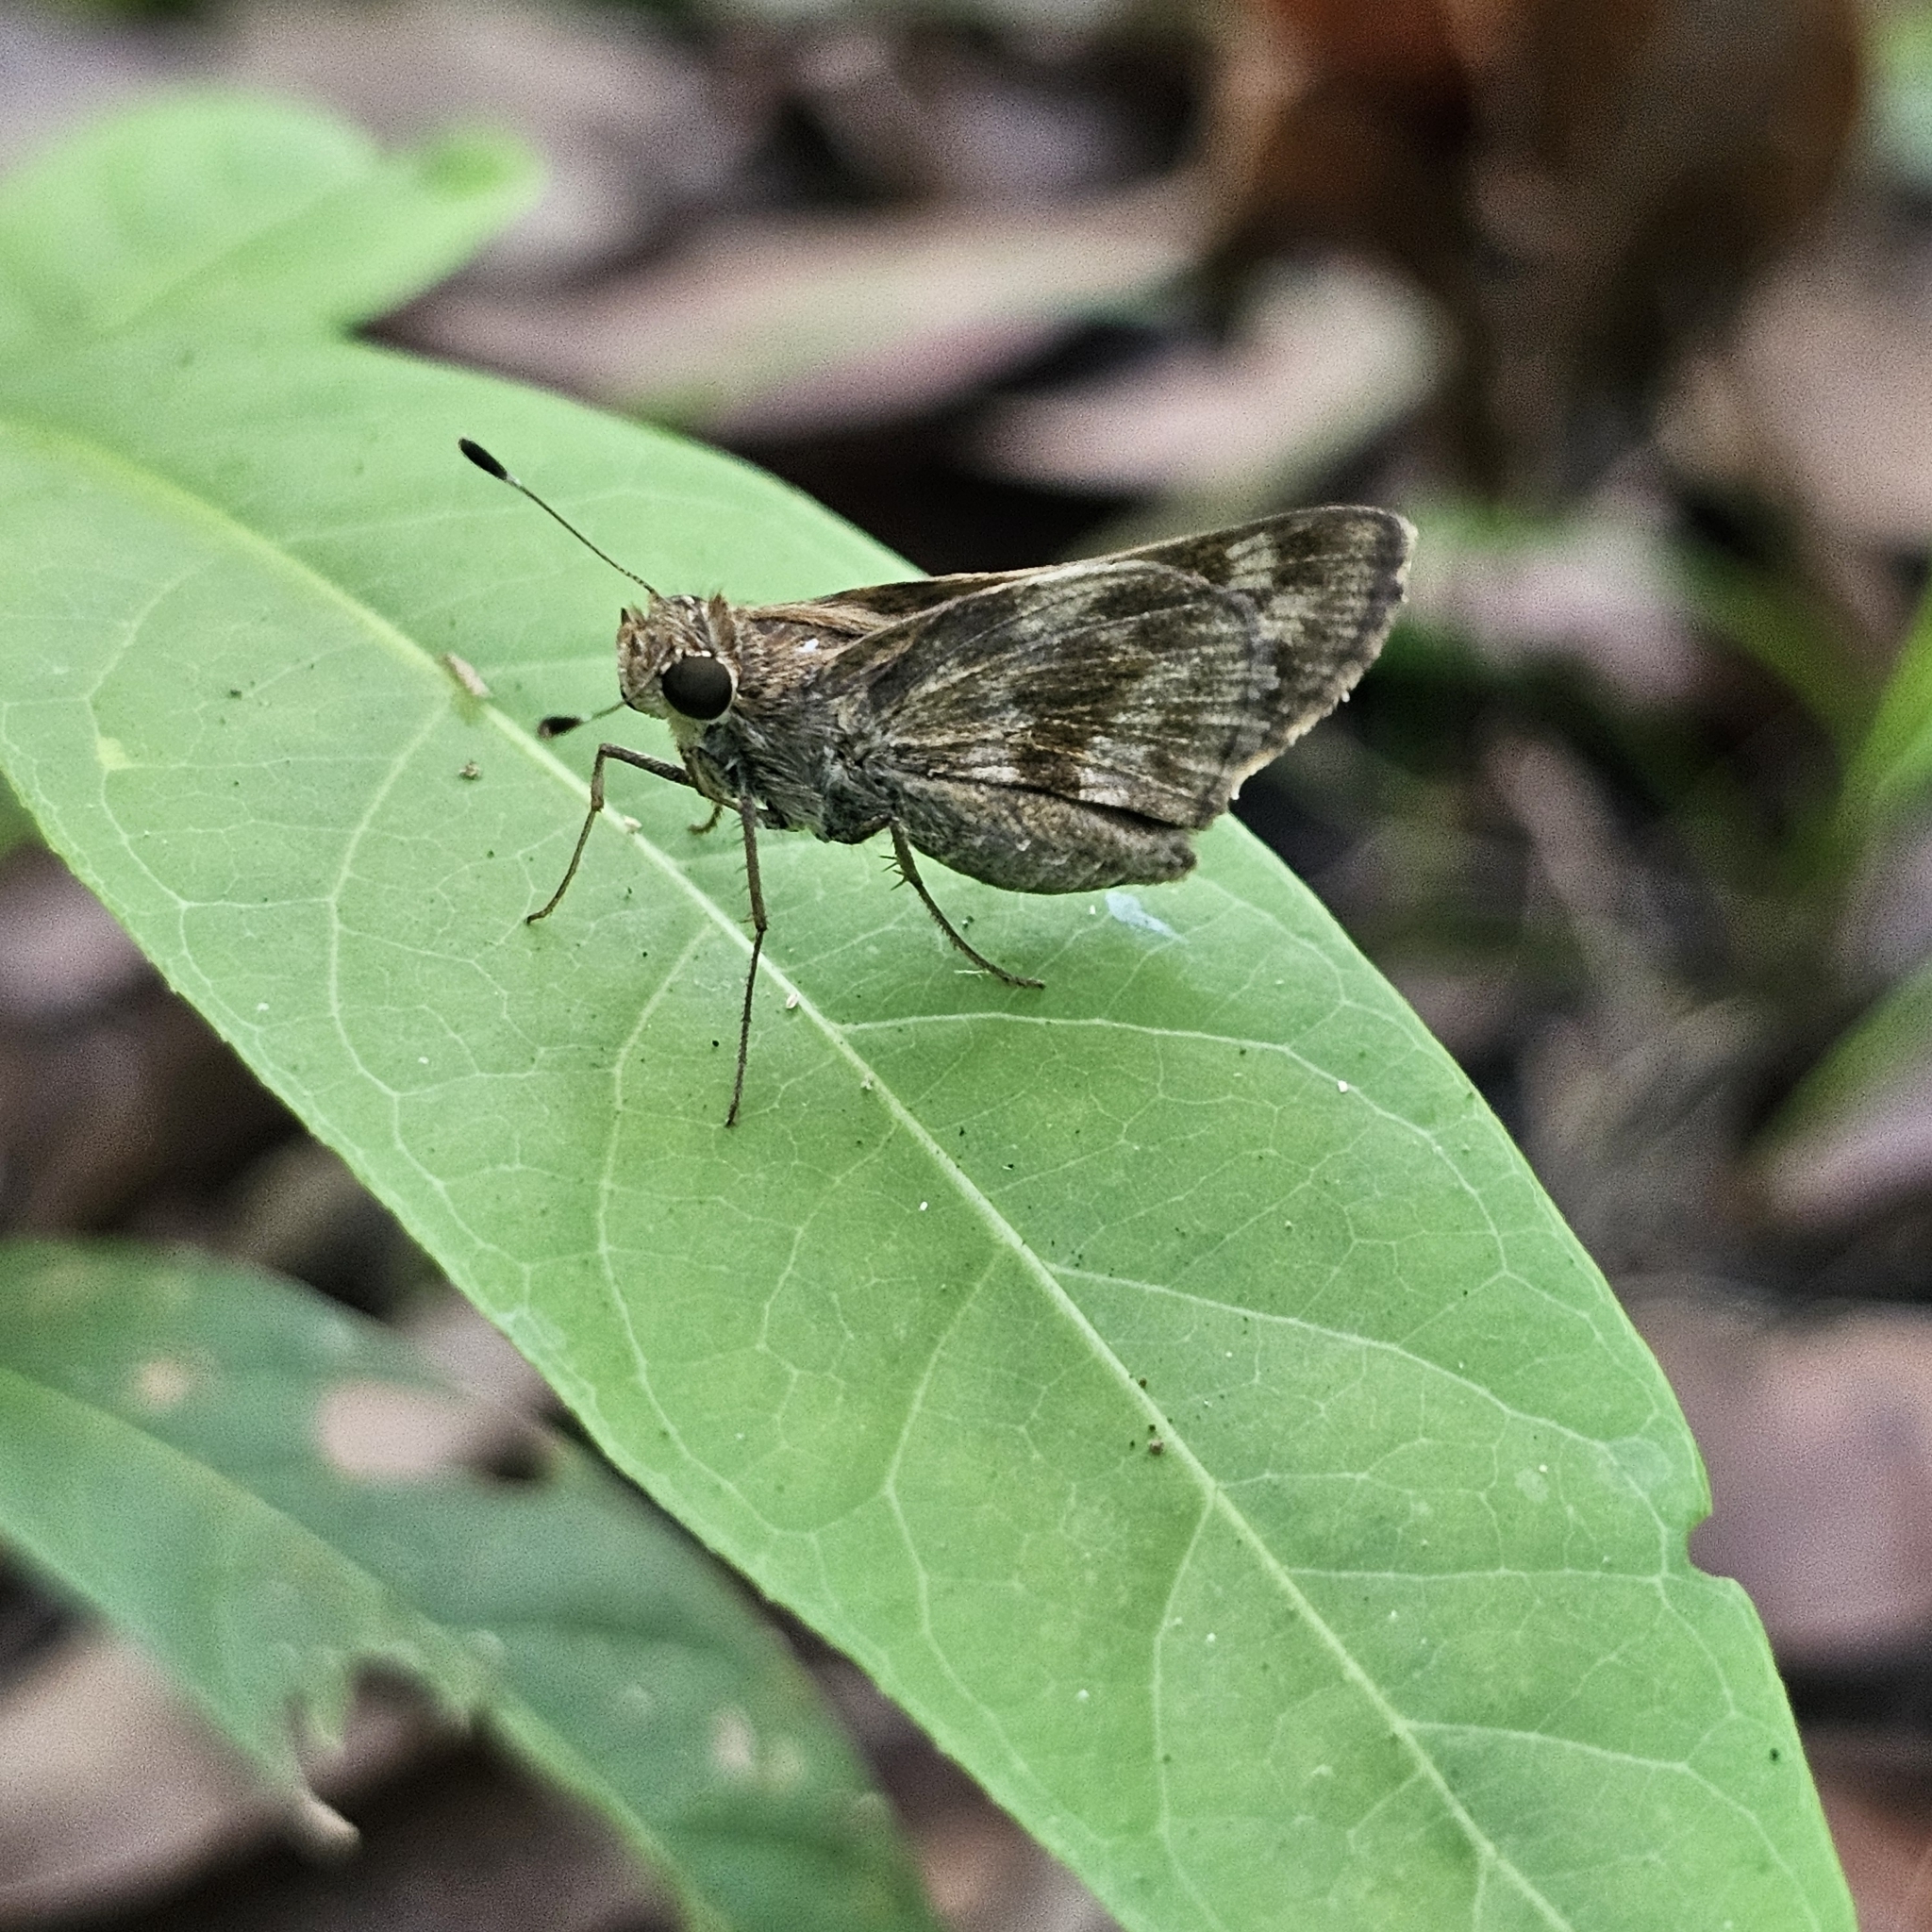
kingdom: Animalia
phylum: Arthropoda
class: Insecta
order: Lepidoptera
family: Hesperiidae
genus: Pompeius
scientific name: Pompeius pompeius
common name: Pompeius skipper
